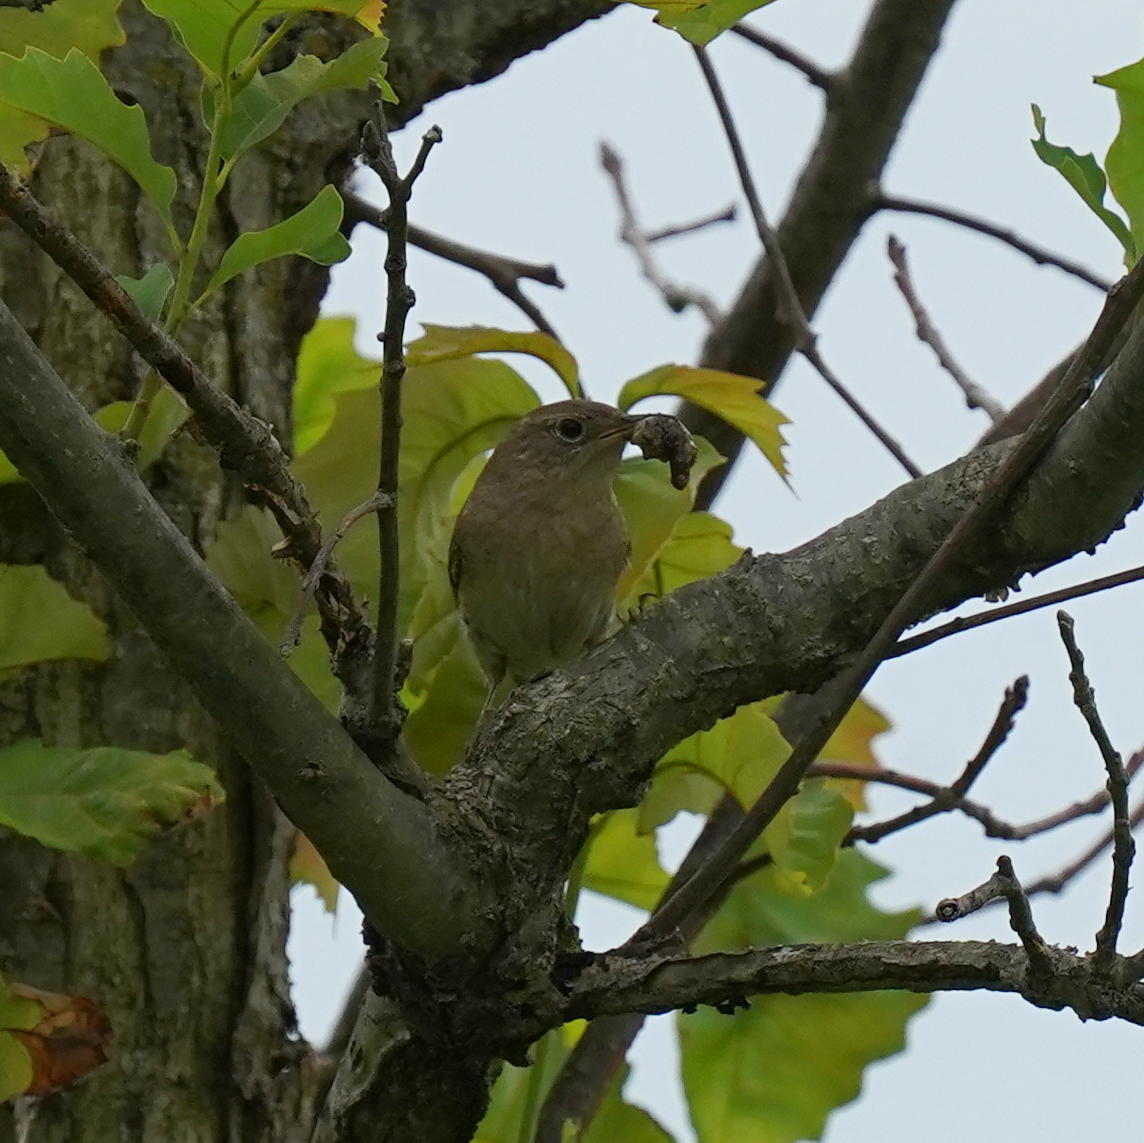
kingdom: Animalia
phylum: Chordata
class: Aves
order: Passeriformes
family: Troglodytidae
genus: Troglodytes
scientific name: Troglodytes aedon
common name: House wren
